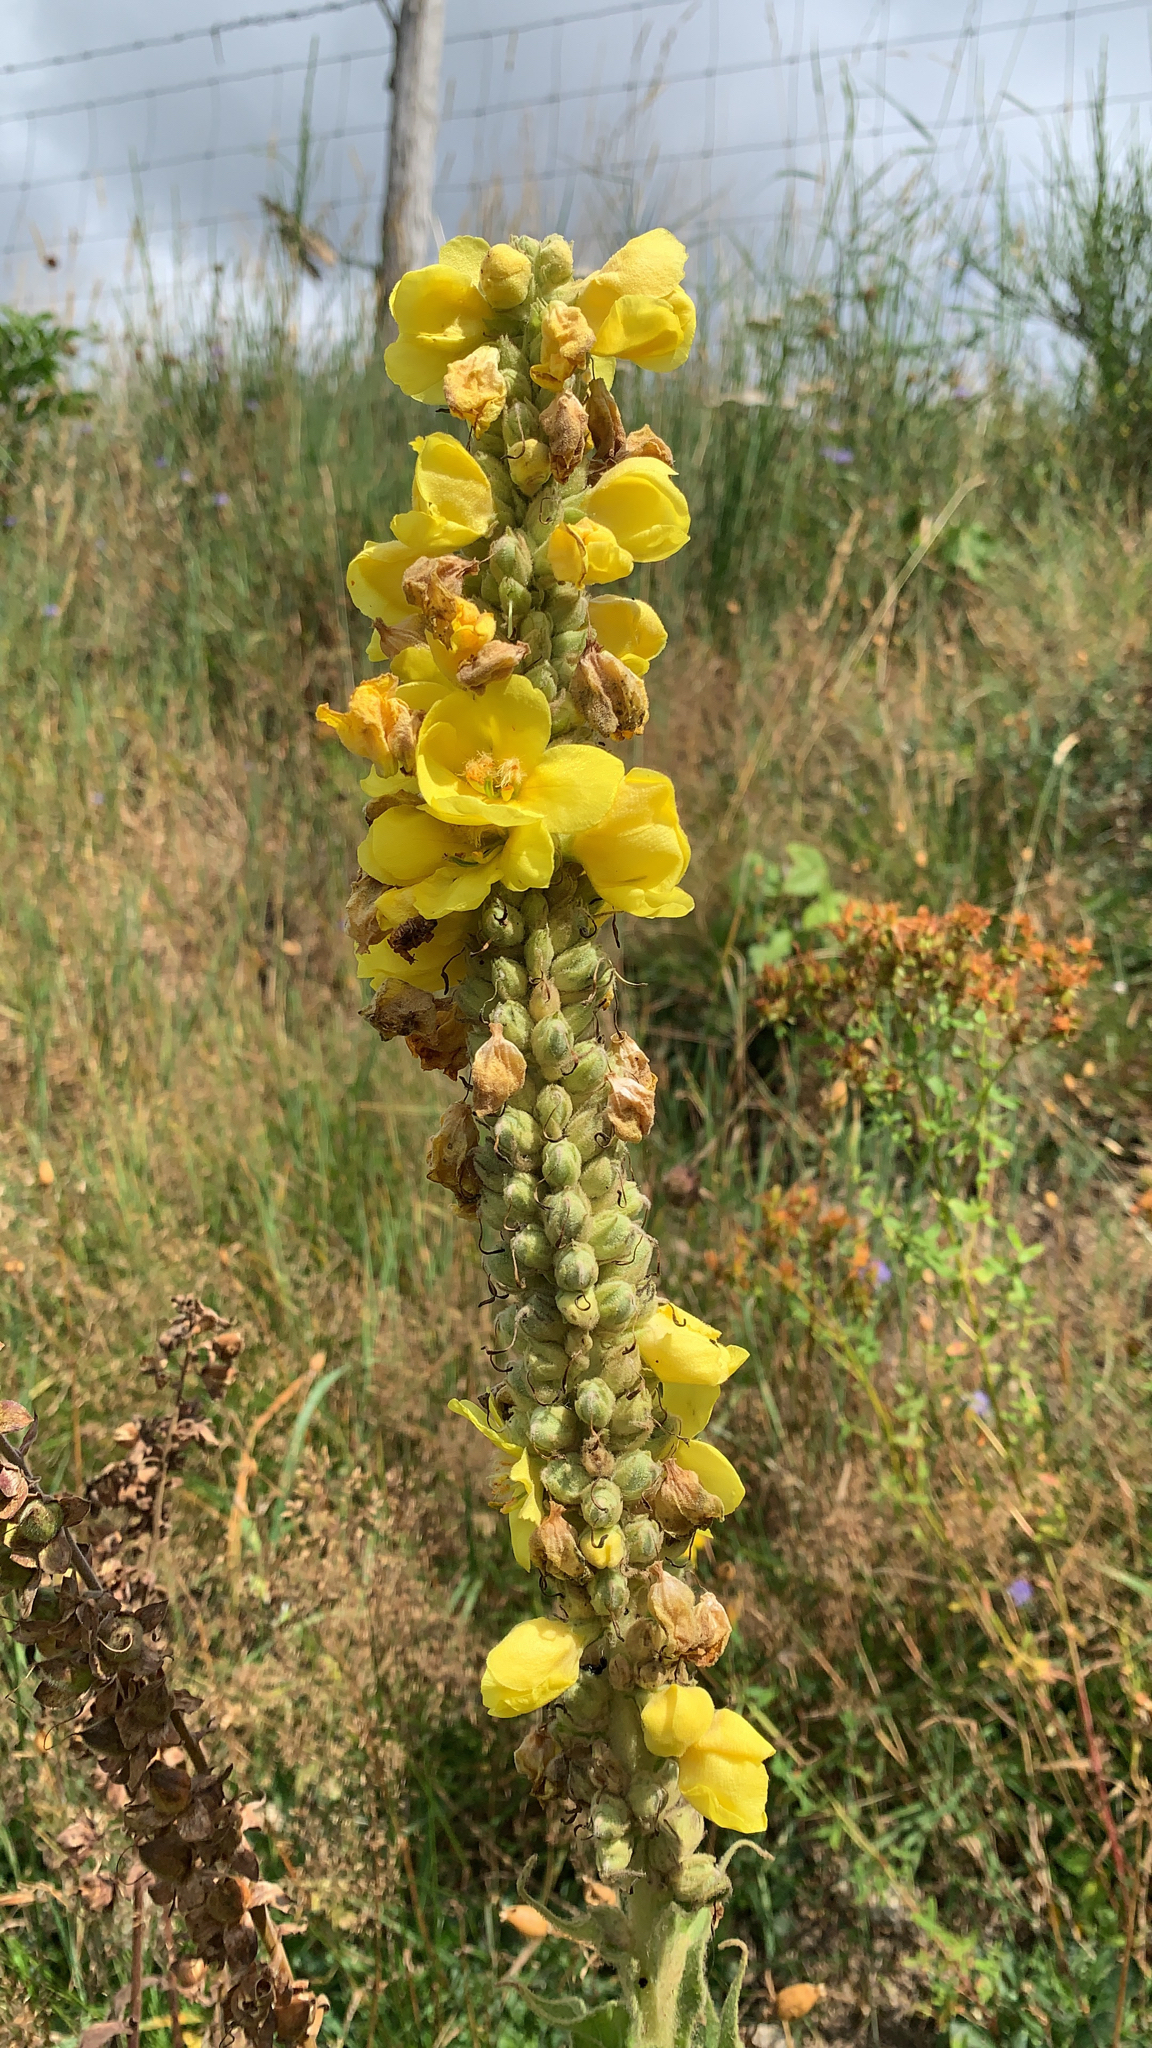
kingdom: Plantae
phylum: Tracheophyta
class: Magnoliopsida
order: Lamiales
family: Scrophulariaceae
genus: Verbascum
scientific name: Verbascum thapsus
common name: Common mullein
